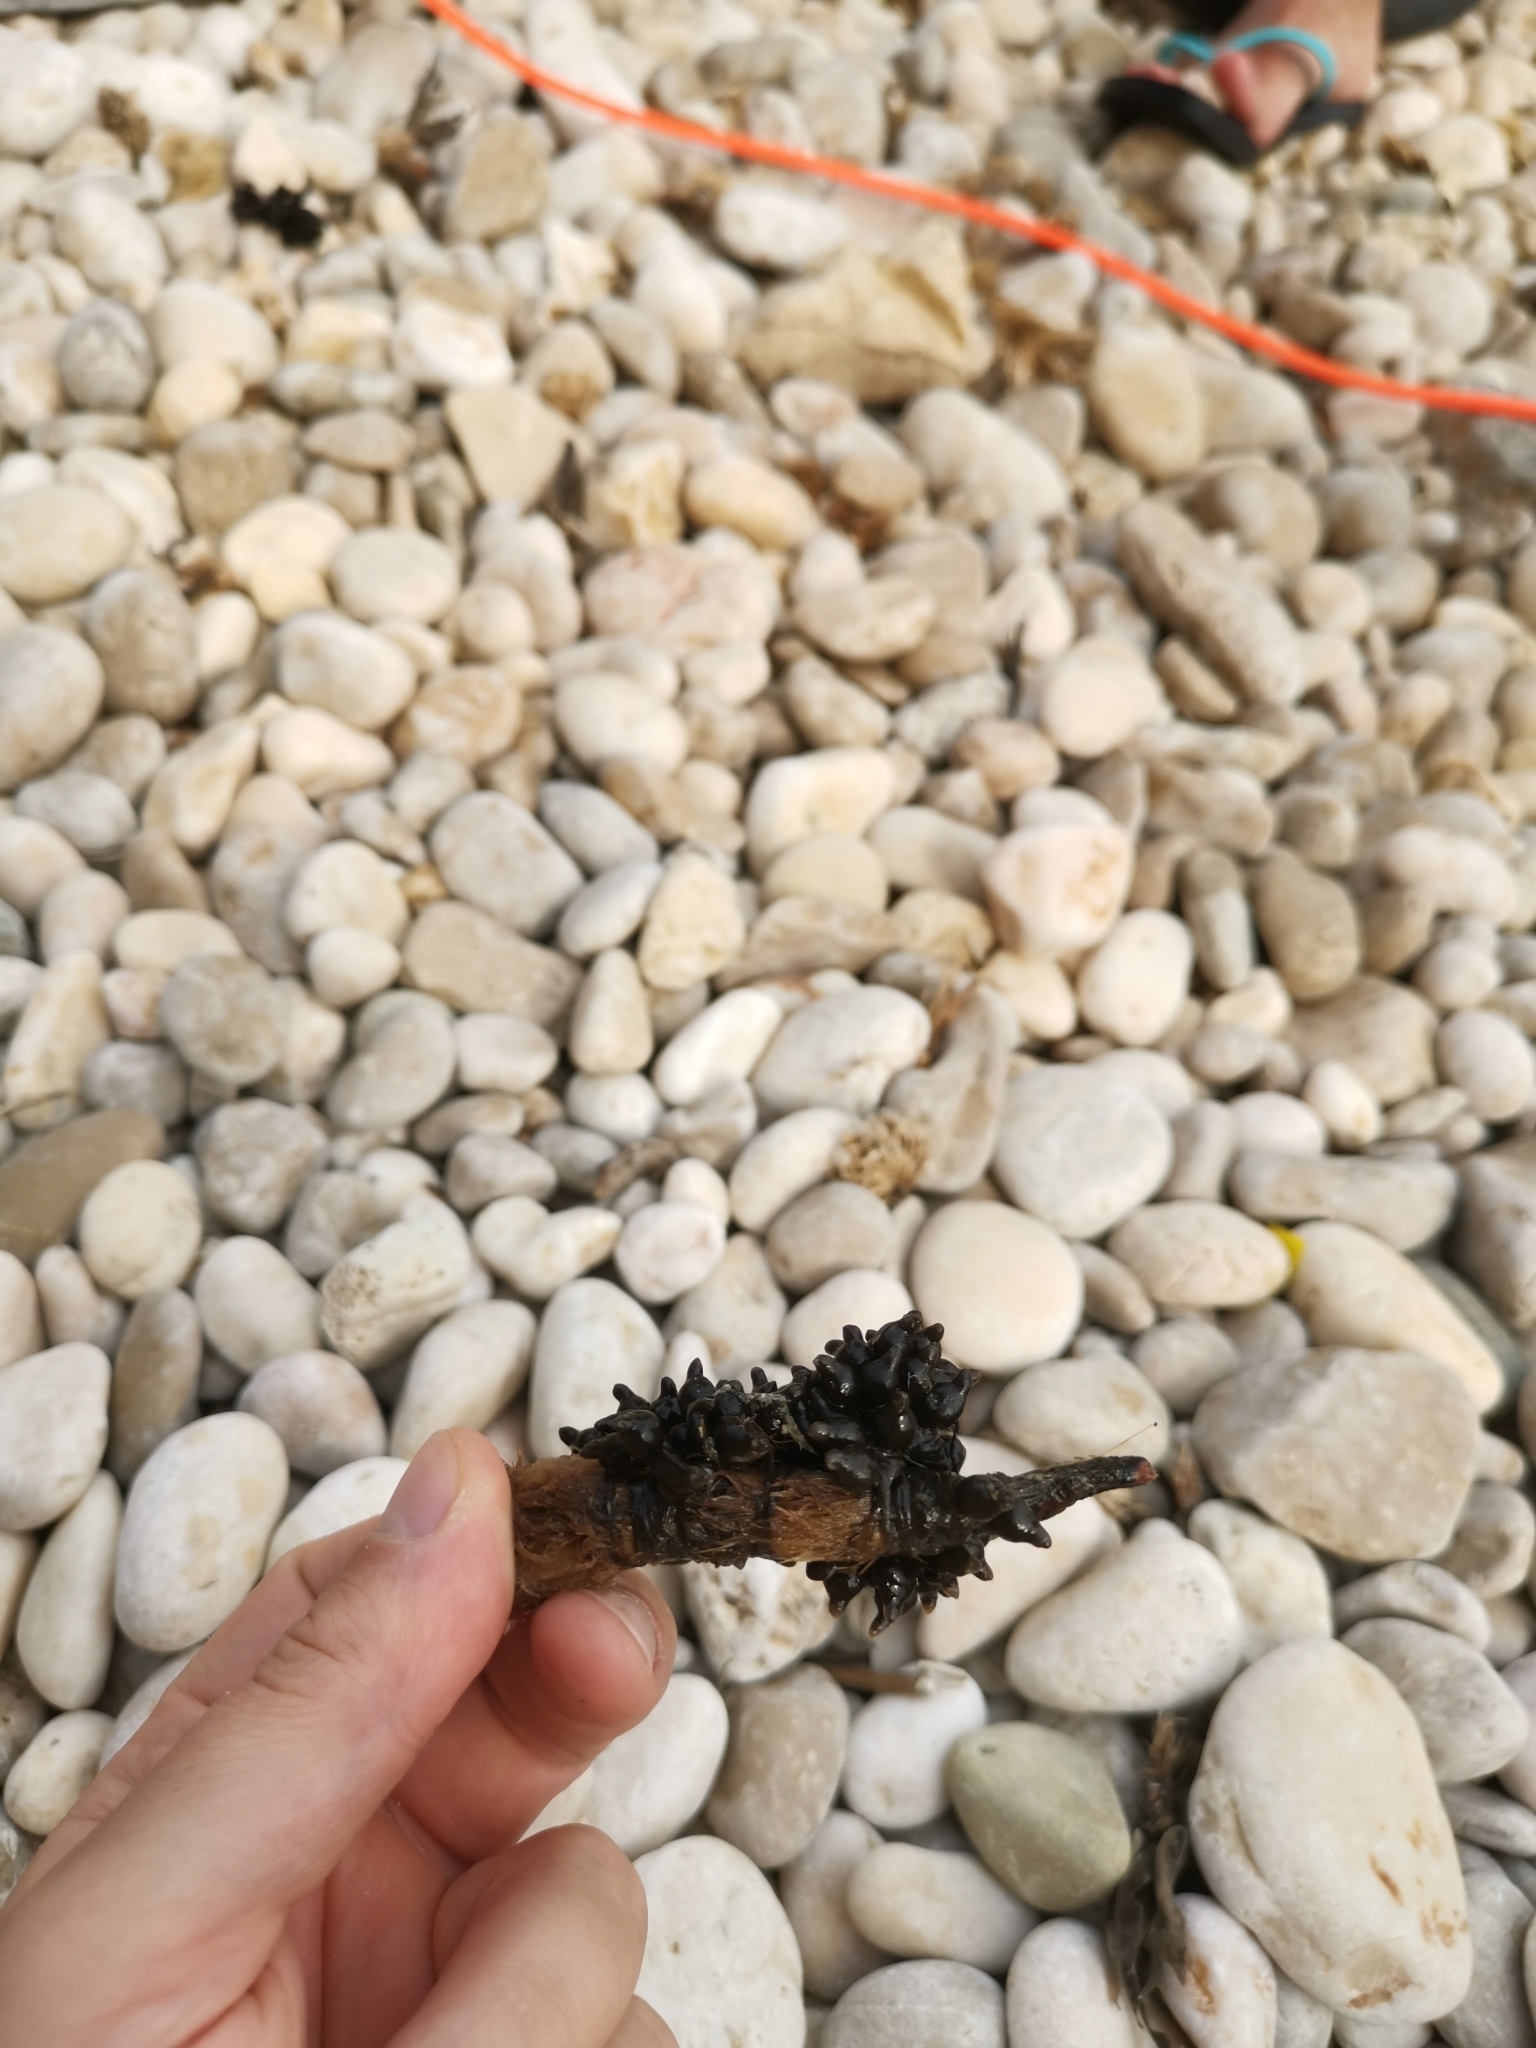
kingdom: Animalia
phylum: Mollusca
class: Cephalopoda
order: Sepiida
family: Sepiidae
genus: Sepia
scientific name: Sepia officinalis
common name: Common cuttlefish
